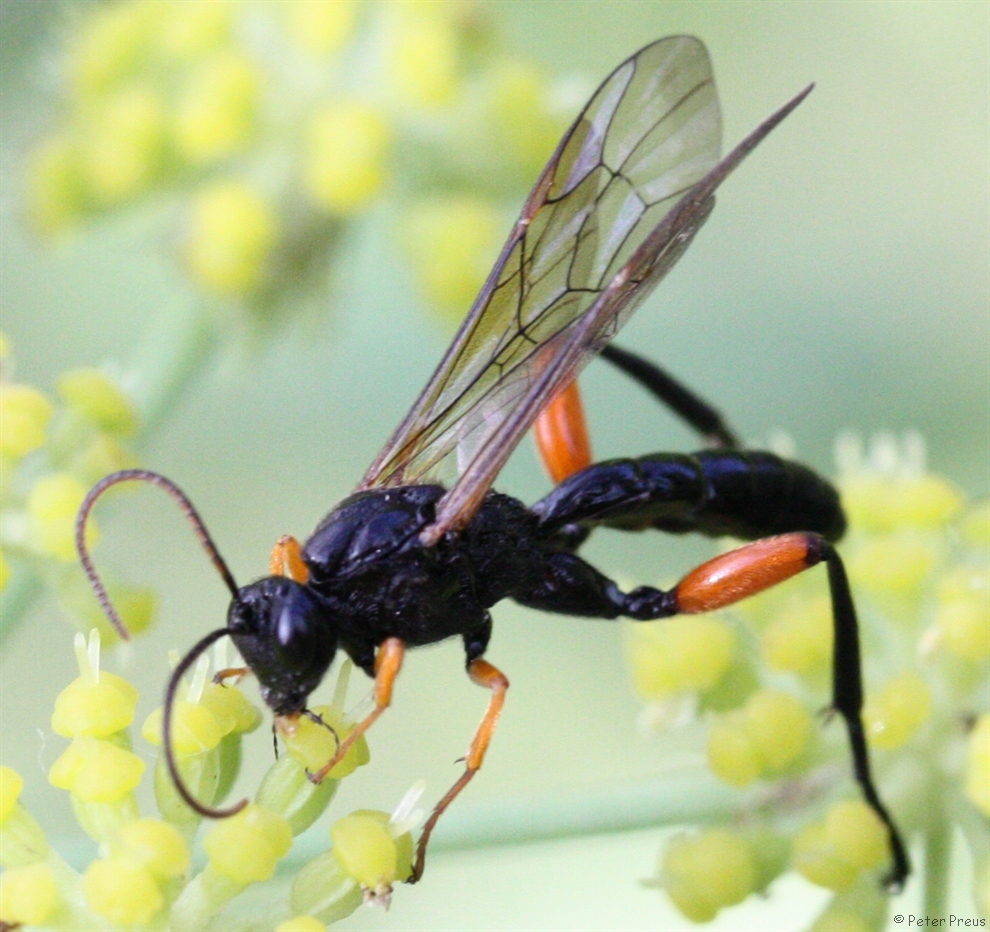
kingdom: Animalia
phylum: Arthropoda
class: Insecta
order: Hymenoptera
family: Ichneumonidae
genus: Phaenolobus
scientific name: Phaenolobus terebrator
